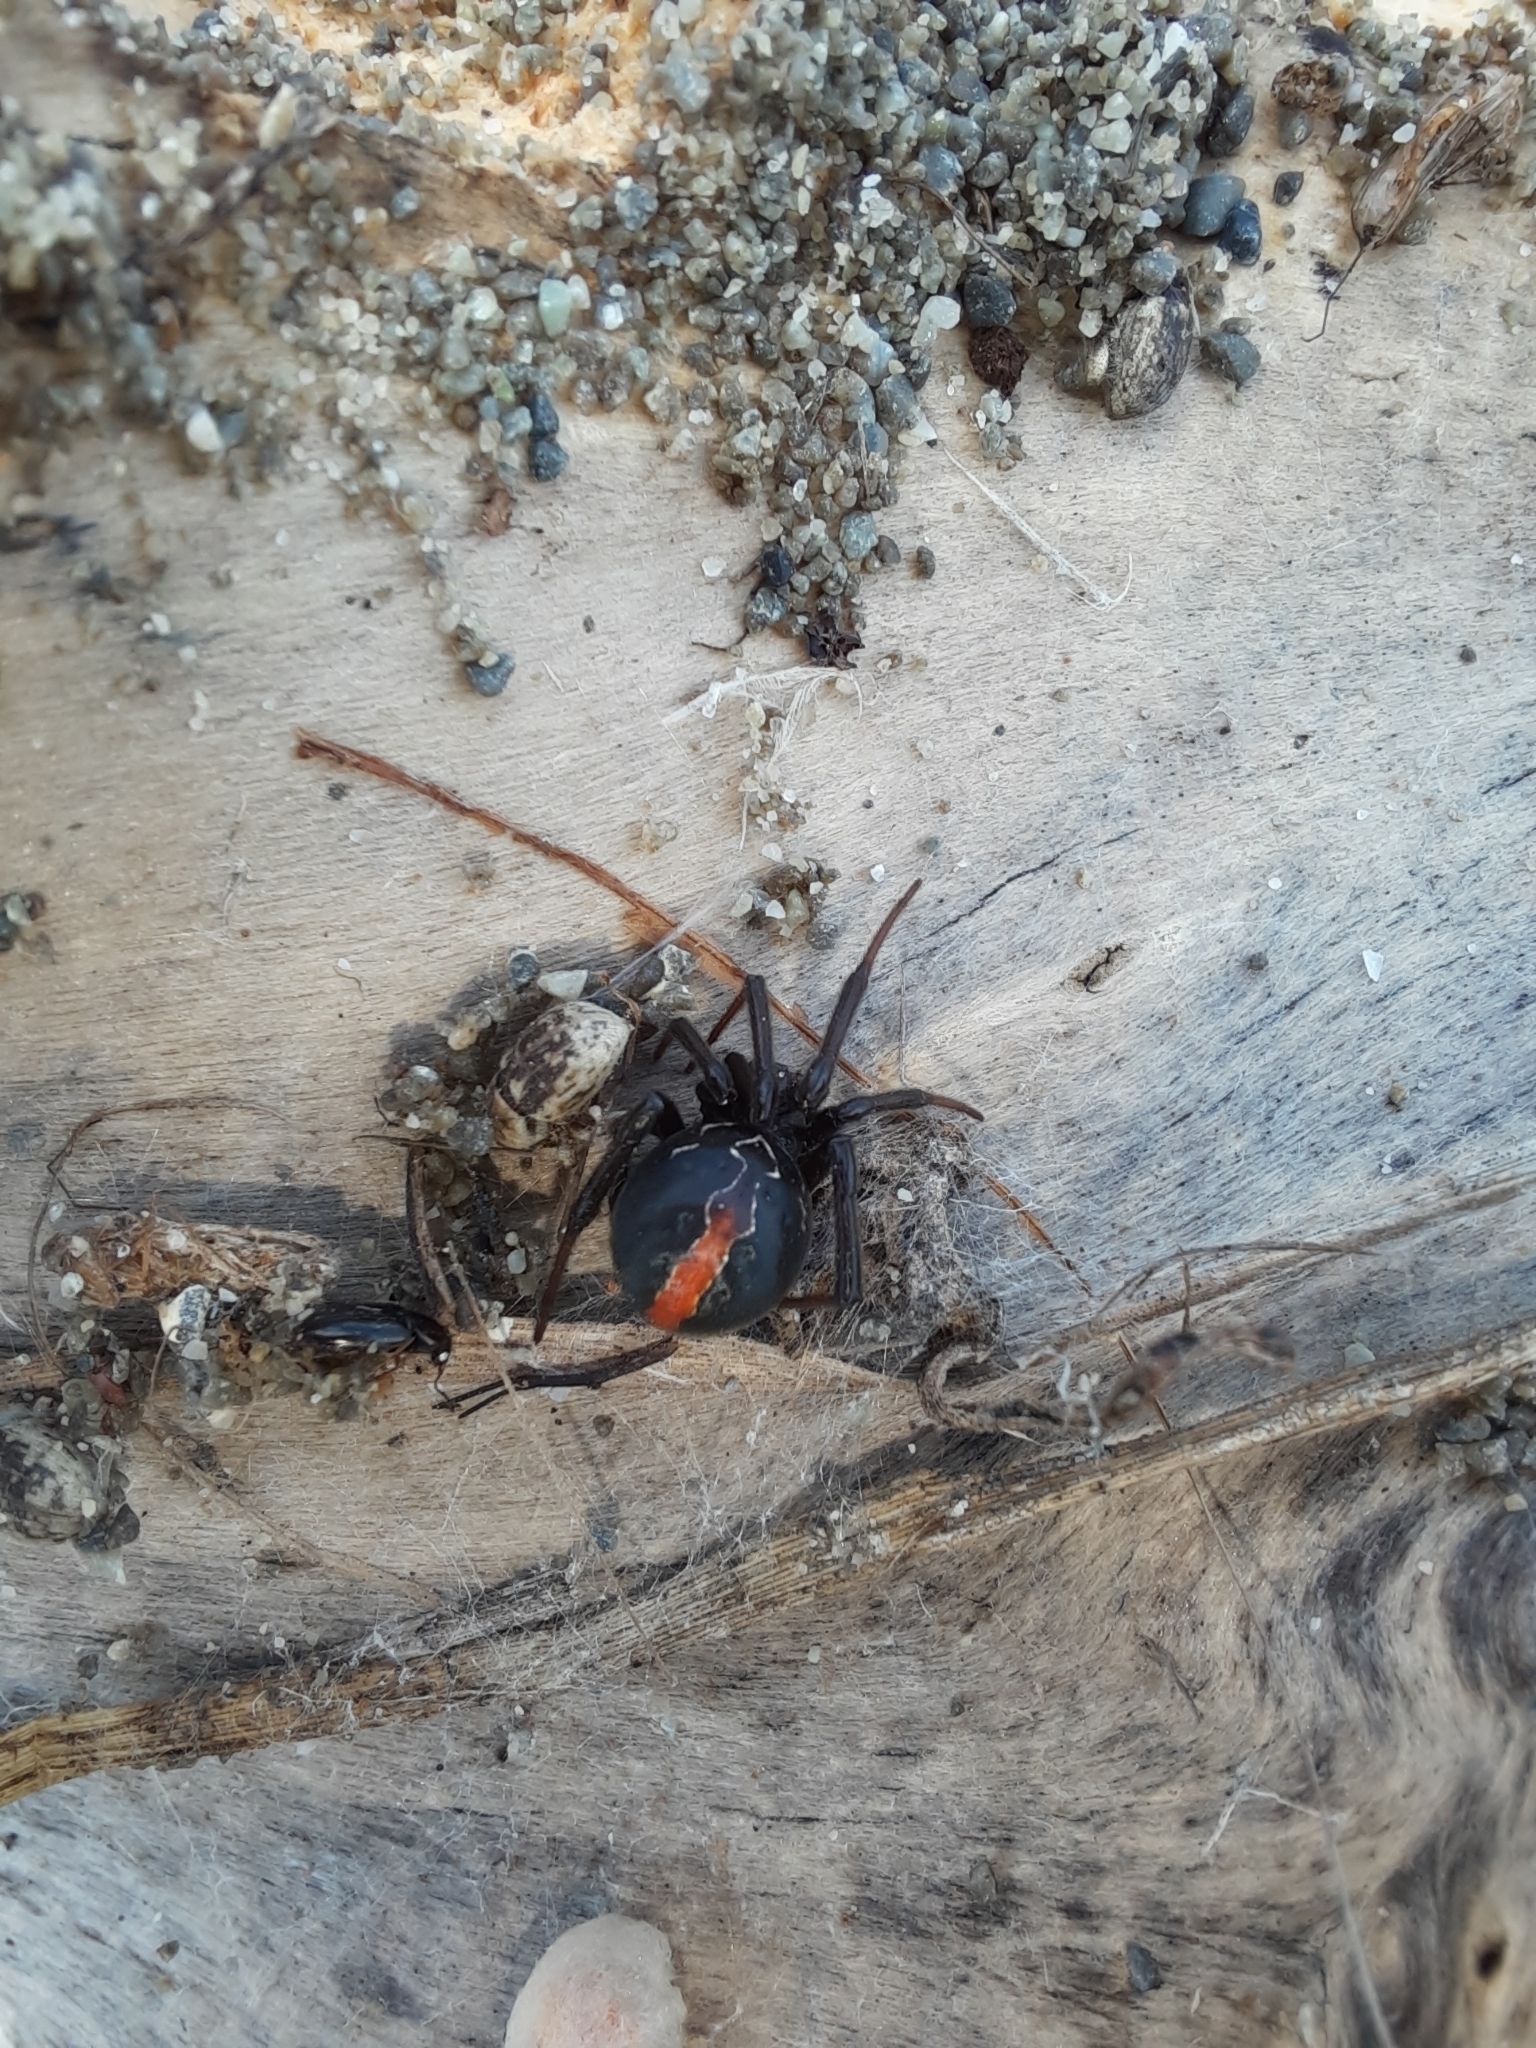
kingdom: Animalia
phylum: Arthropoda
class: Arachnida
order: Araneae
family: Theridiidae
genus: Latrodectus
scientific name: Latrodectus katipo
